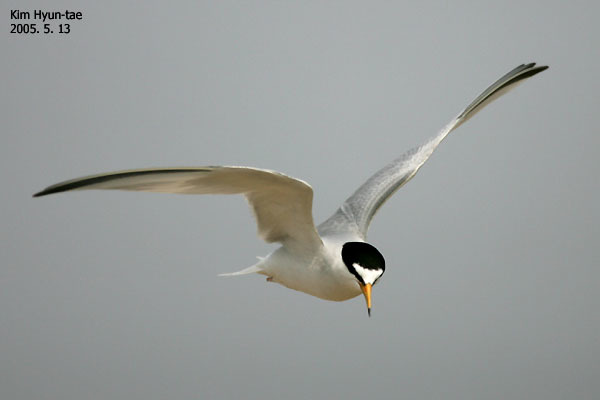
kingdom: Animalia
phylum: Chordata
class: Aves
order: Charadriiformes
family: Laridae
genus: Sternula
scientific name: Sternula albifrons
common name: Little tern
